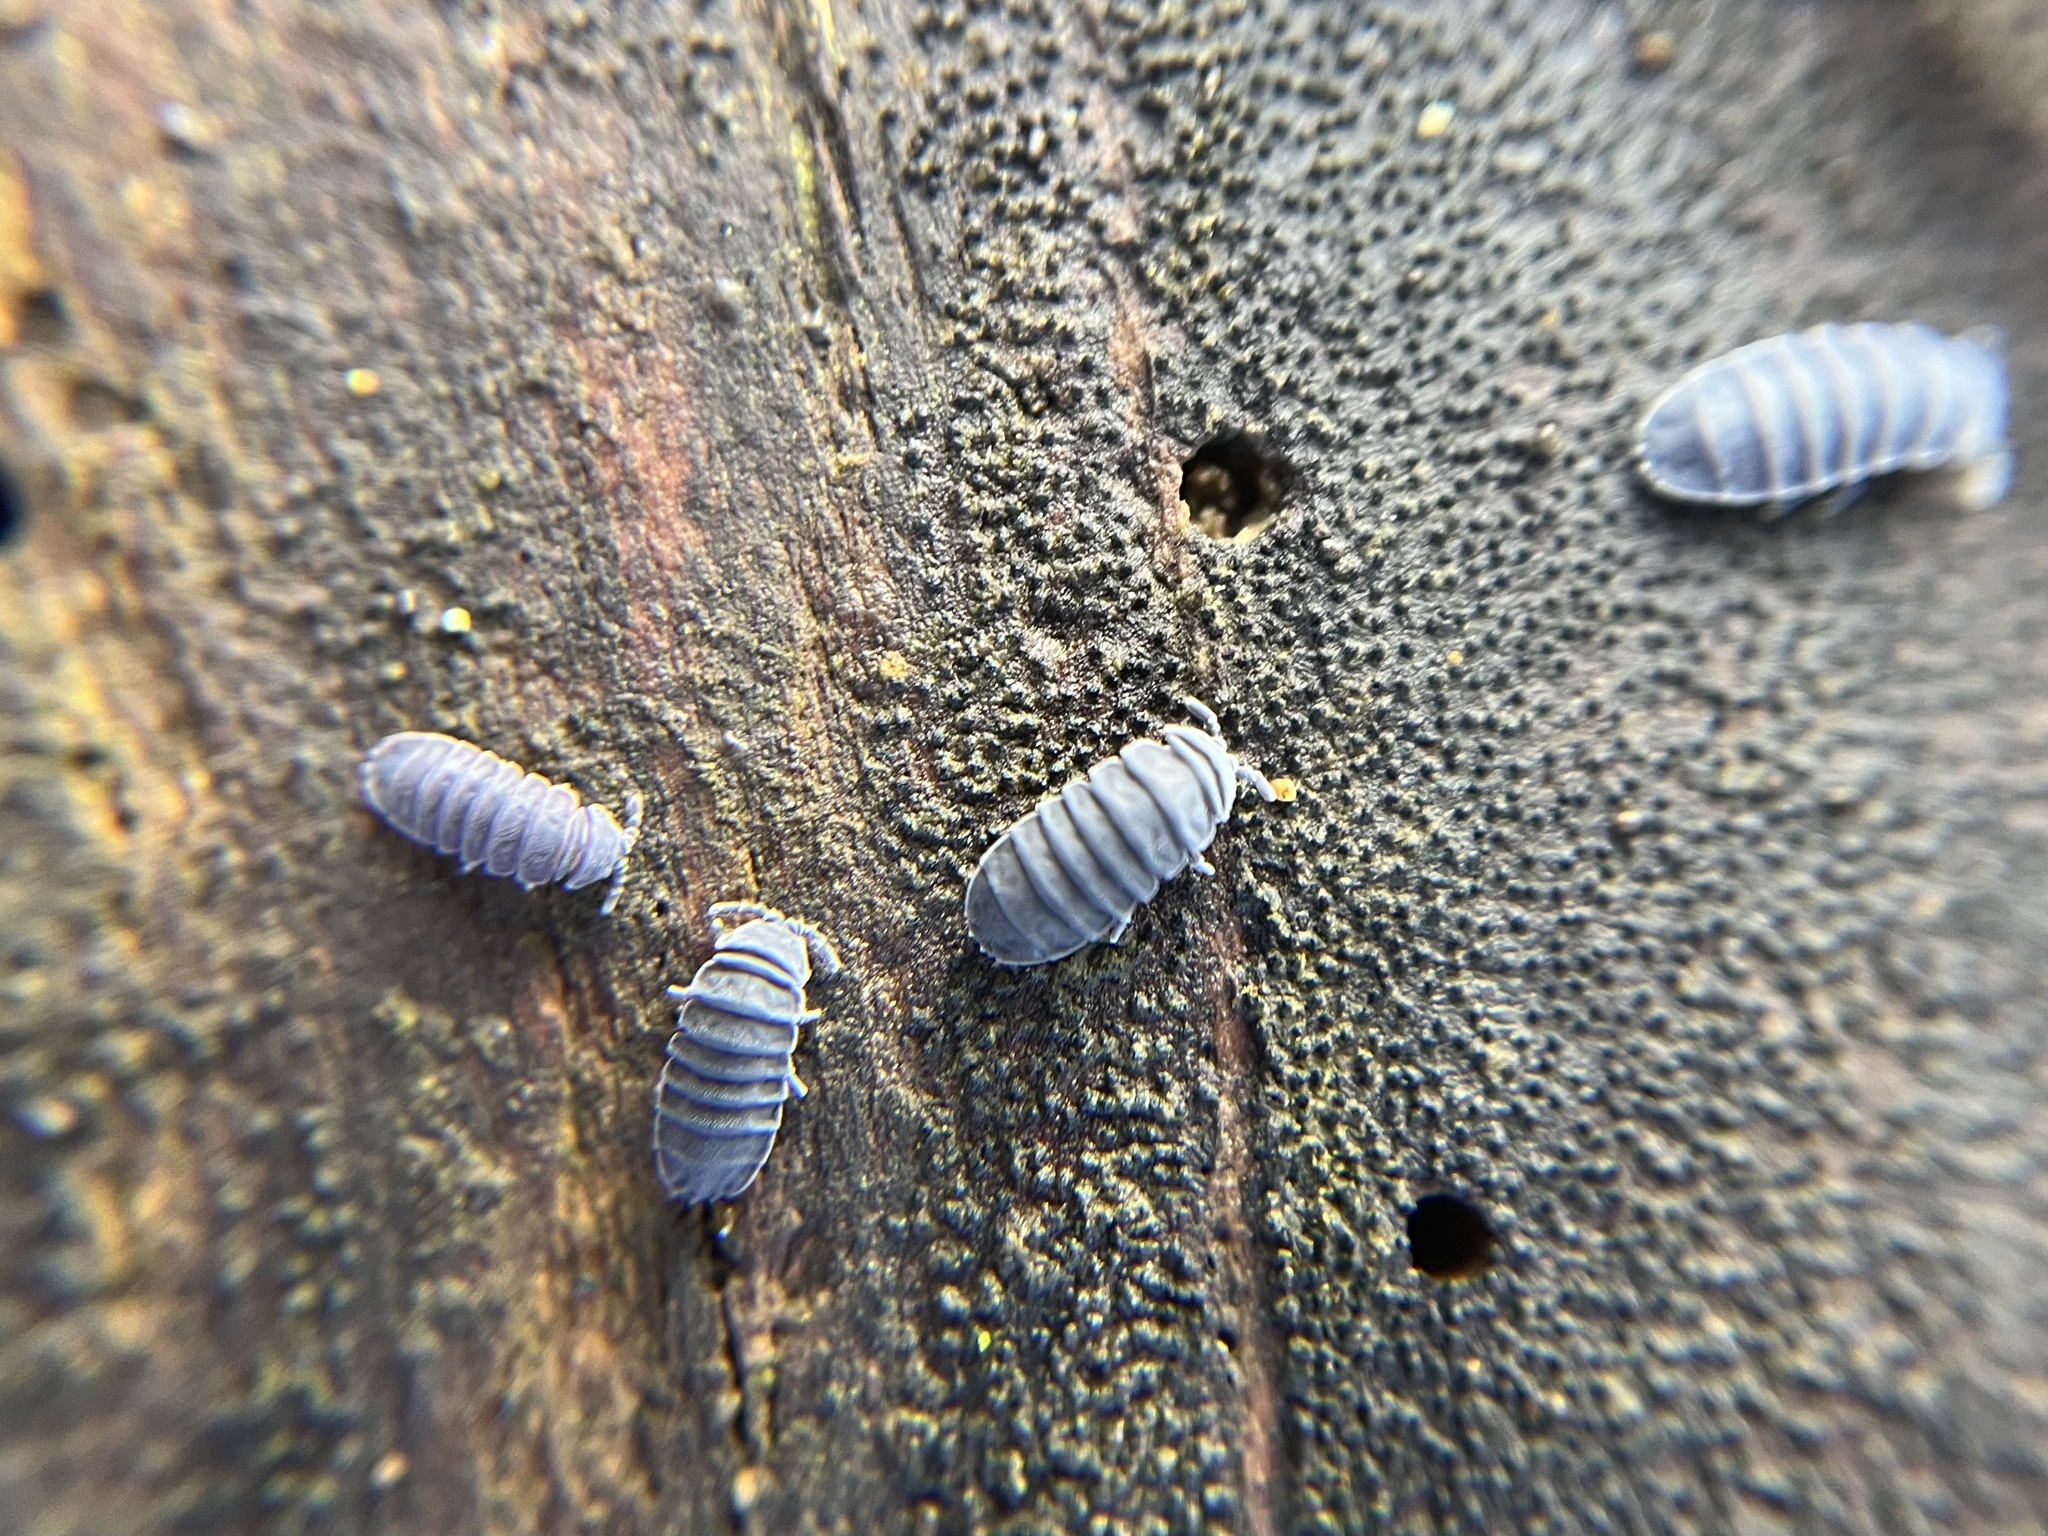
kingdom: Animalia
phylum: Arthropoda
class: Collembola
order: Poduromorpha
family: Onychiuridae
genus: Tetrodontophora
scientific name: Tetrodontophora bielanensis
